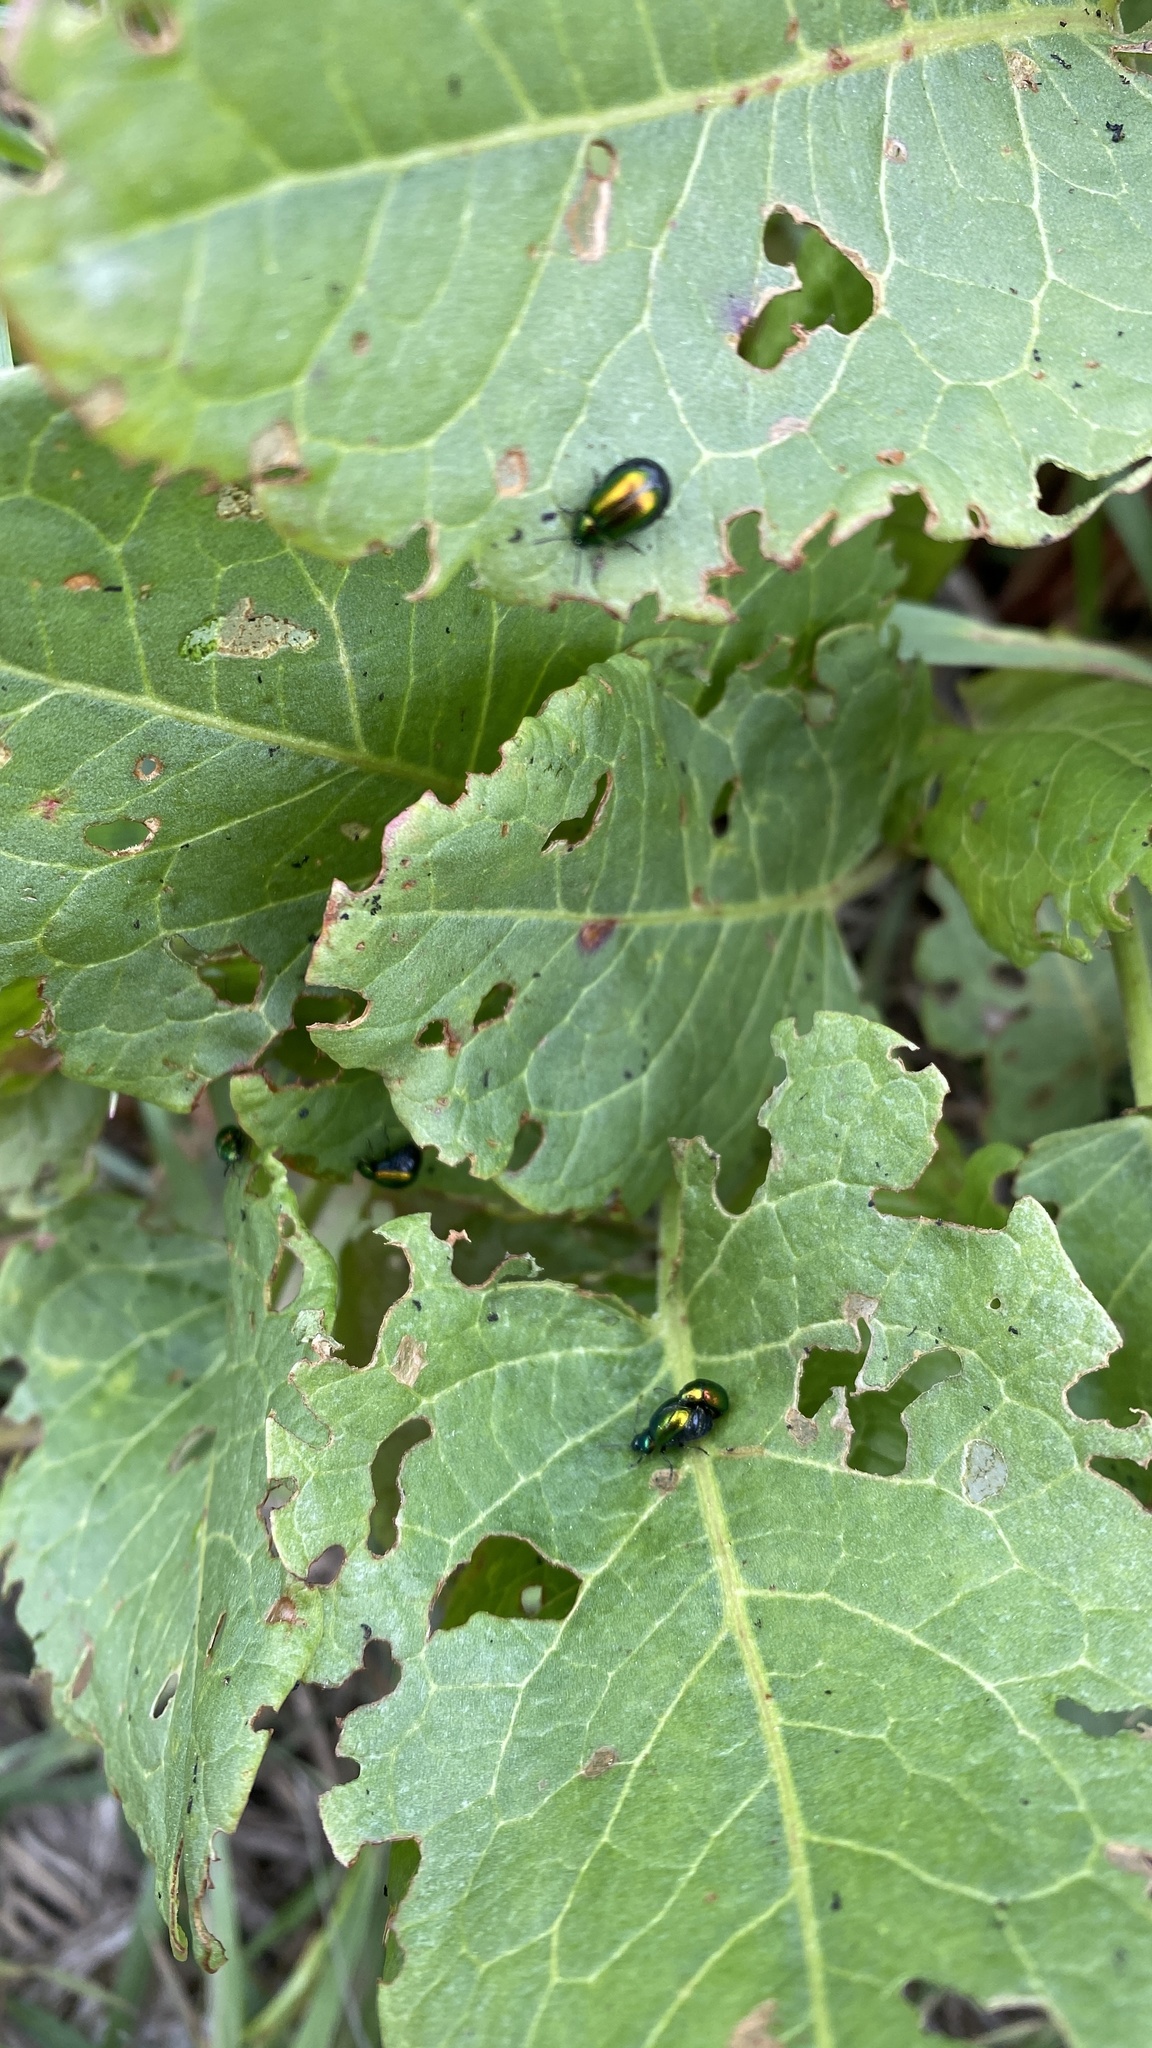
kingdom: Animalia
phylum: Arthropoda
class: Insecta
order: Coleoptera
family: Chrysomelidae
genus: Gastrophysa
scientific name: Gastrophysa viridula
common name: Green dock beetle
